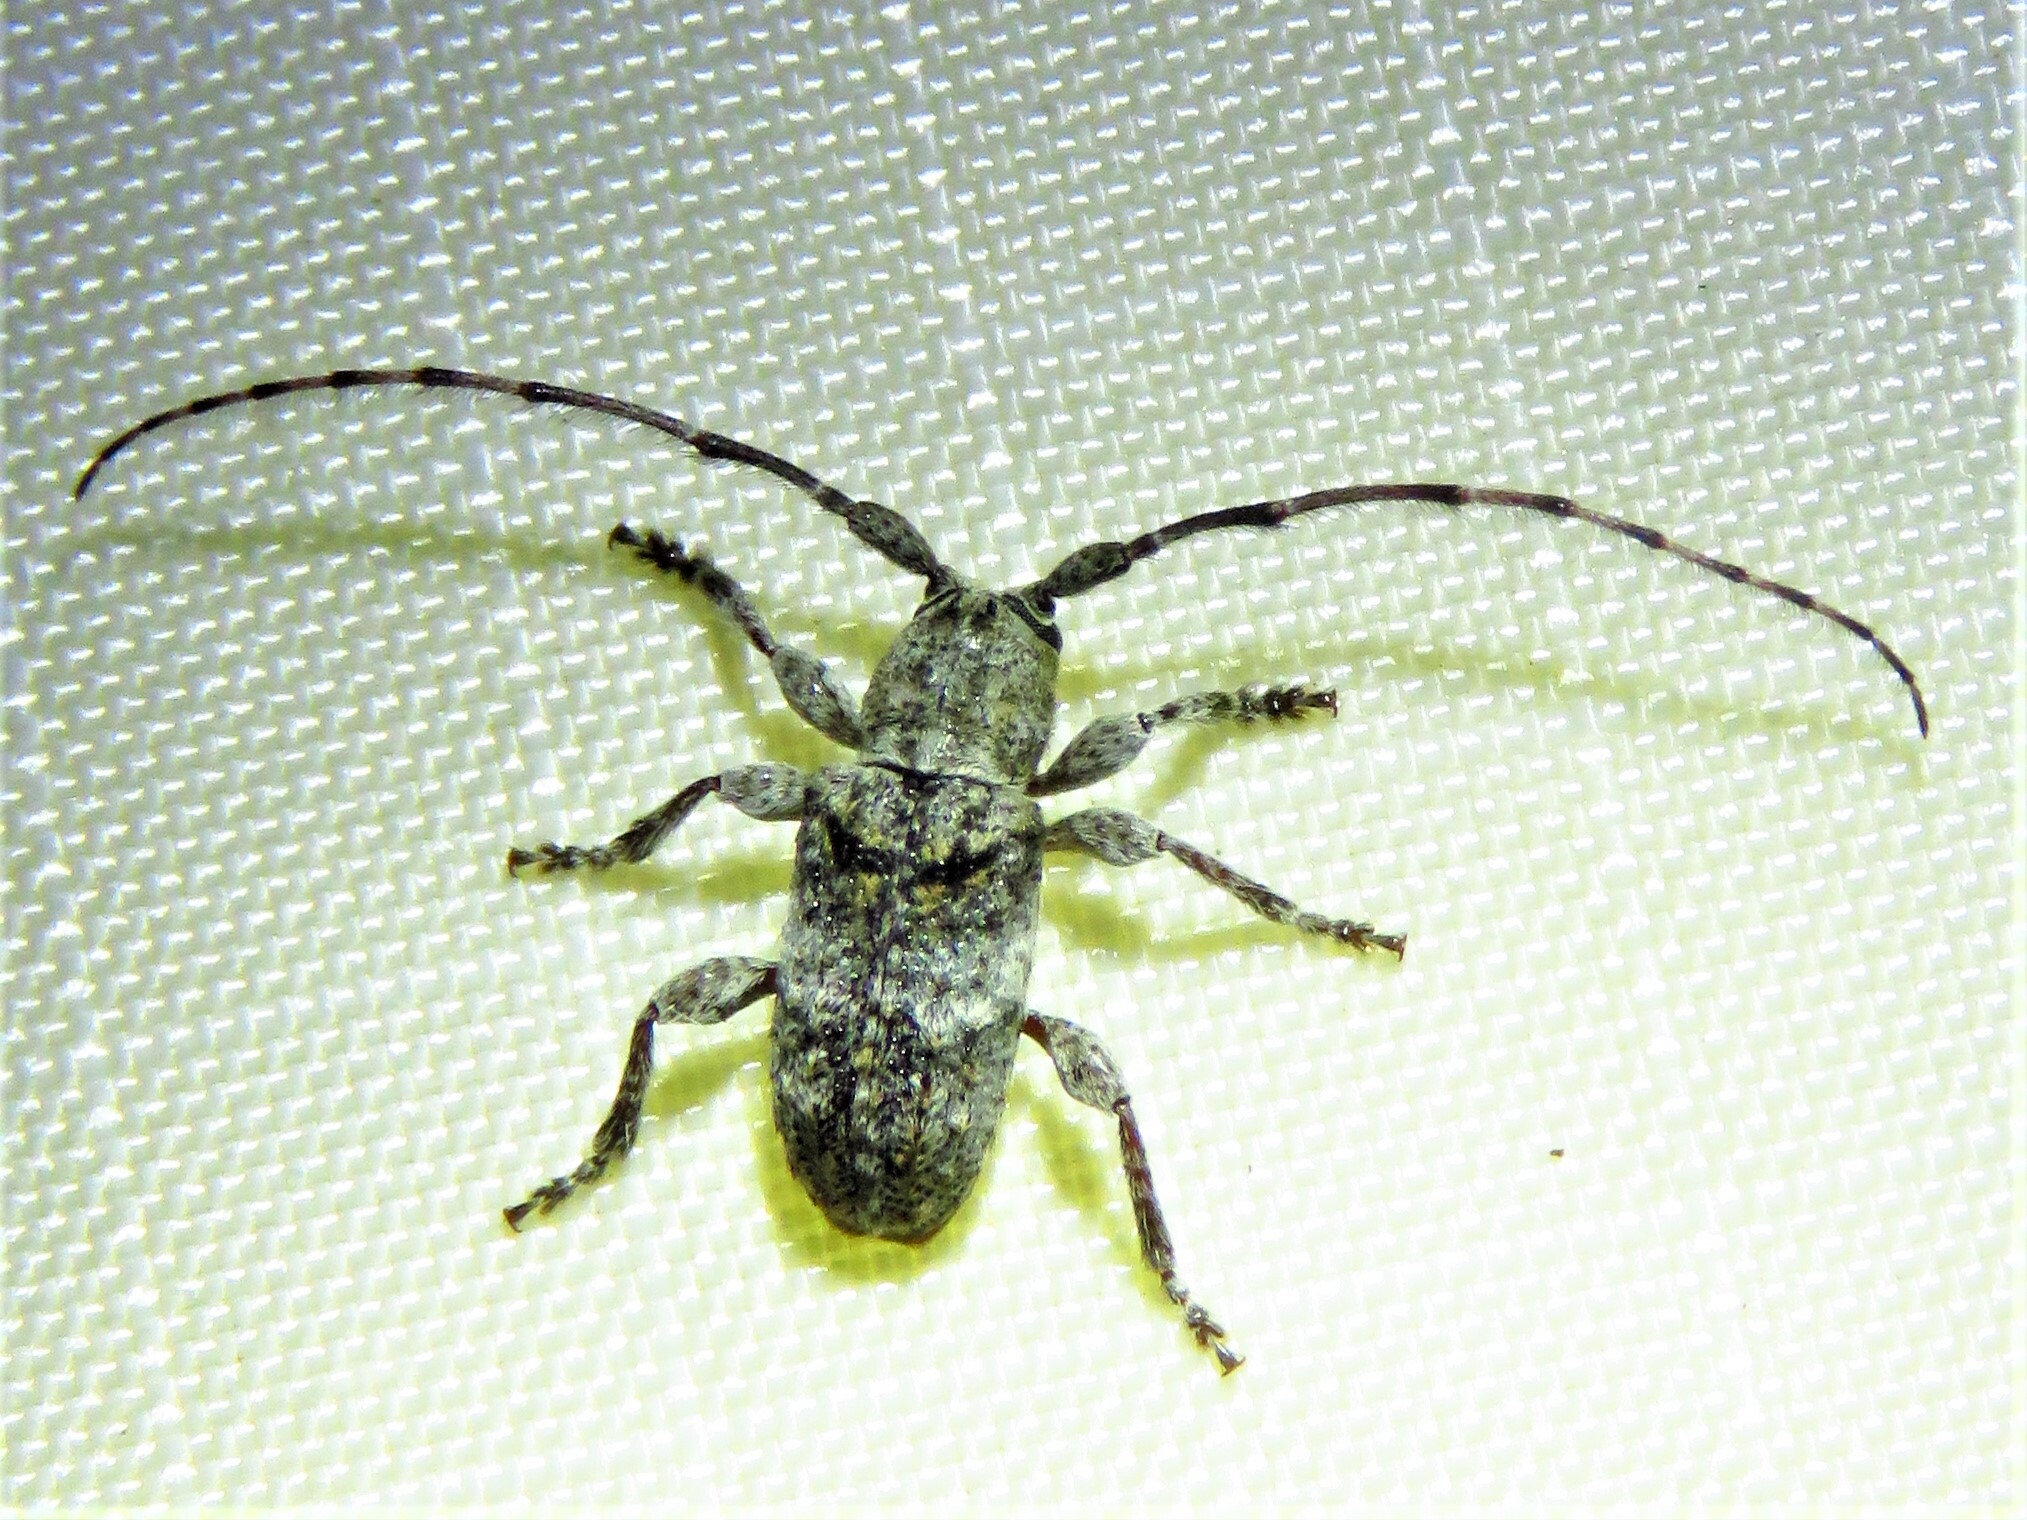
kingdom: Animalia
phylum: Arthropoda
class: Insecta
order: Coleoptera
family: Cerambycidae
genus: Ecyrus
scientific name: Ecyrus dasycerus
